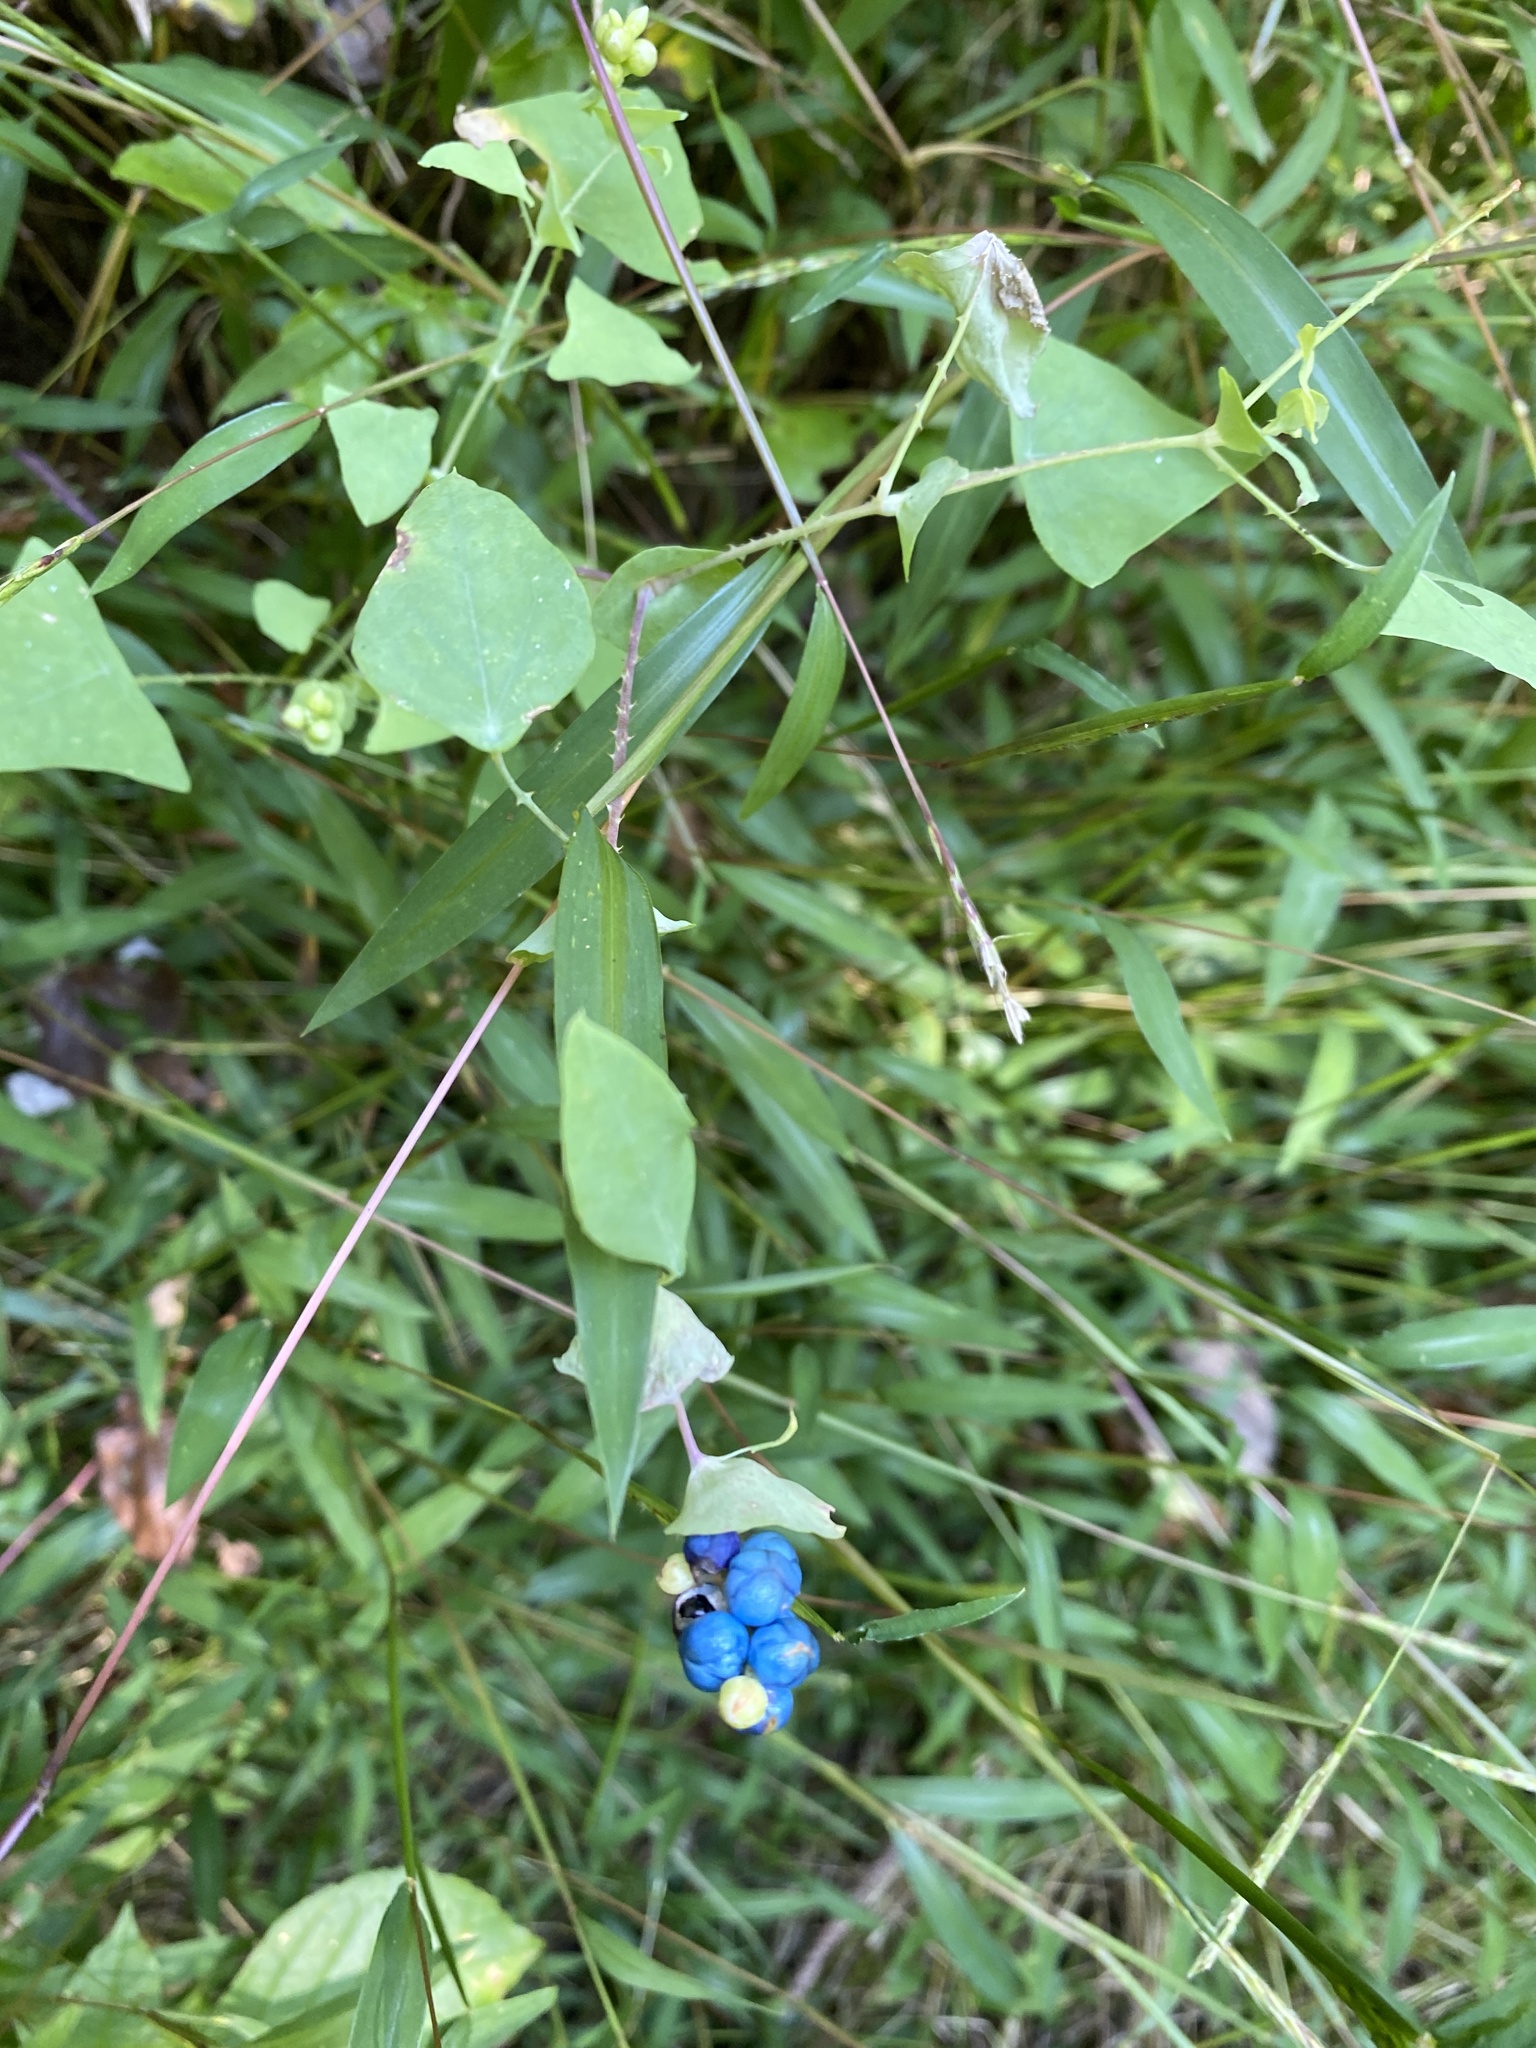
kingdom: Plantae
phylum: Tracheophyta
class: Magnoliopsida
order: Caryophyllales
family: Polygonaceae
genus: Persicaria
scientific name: Persicaria perfoliata
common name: Asiatic tearthumb
